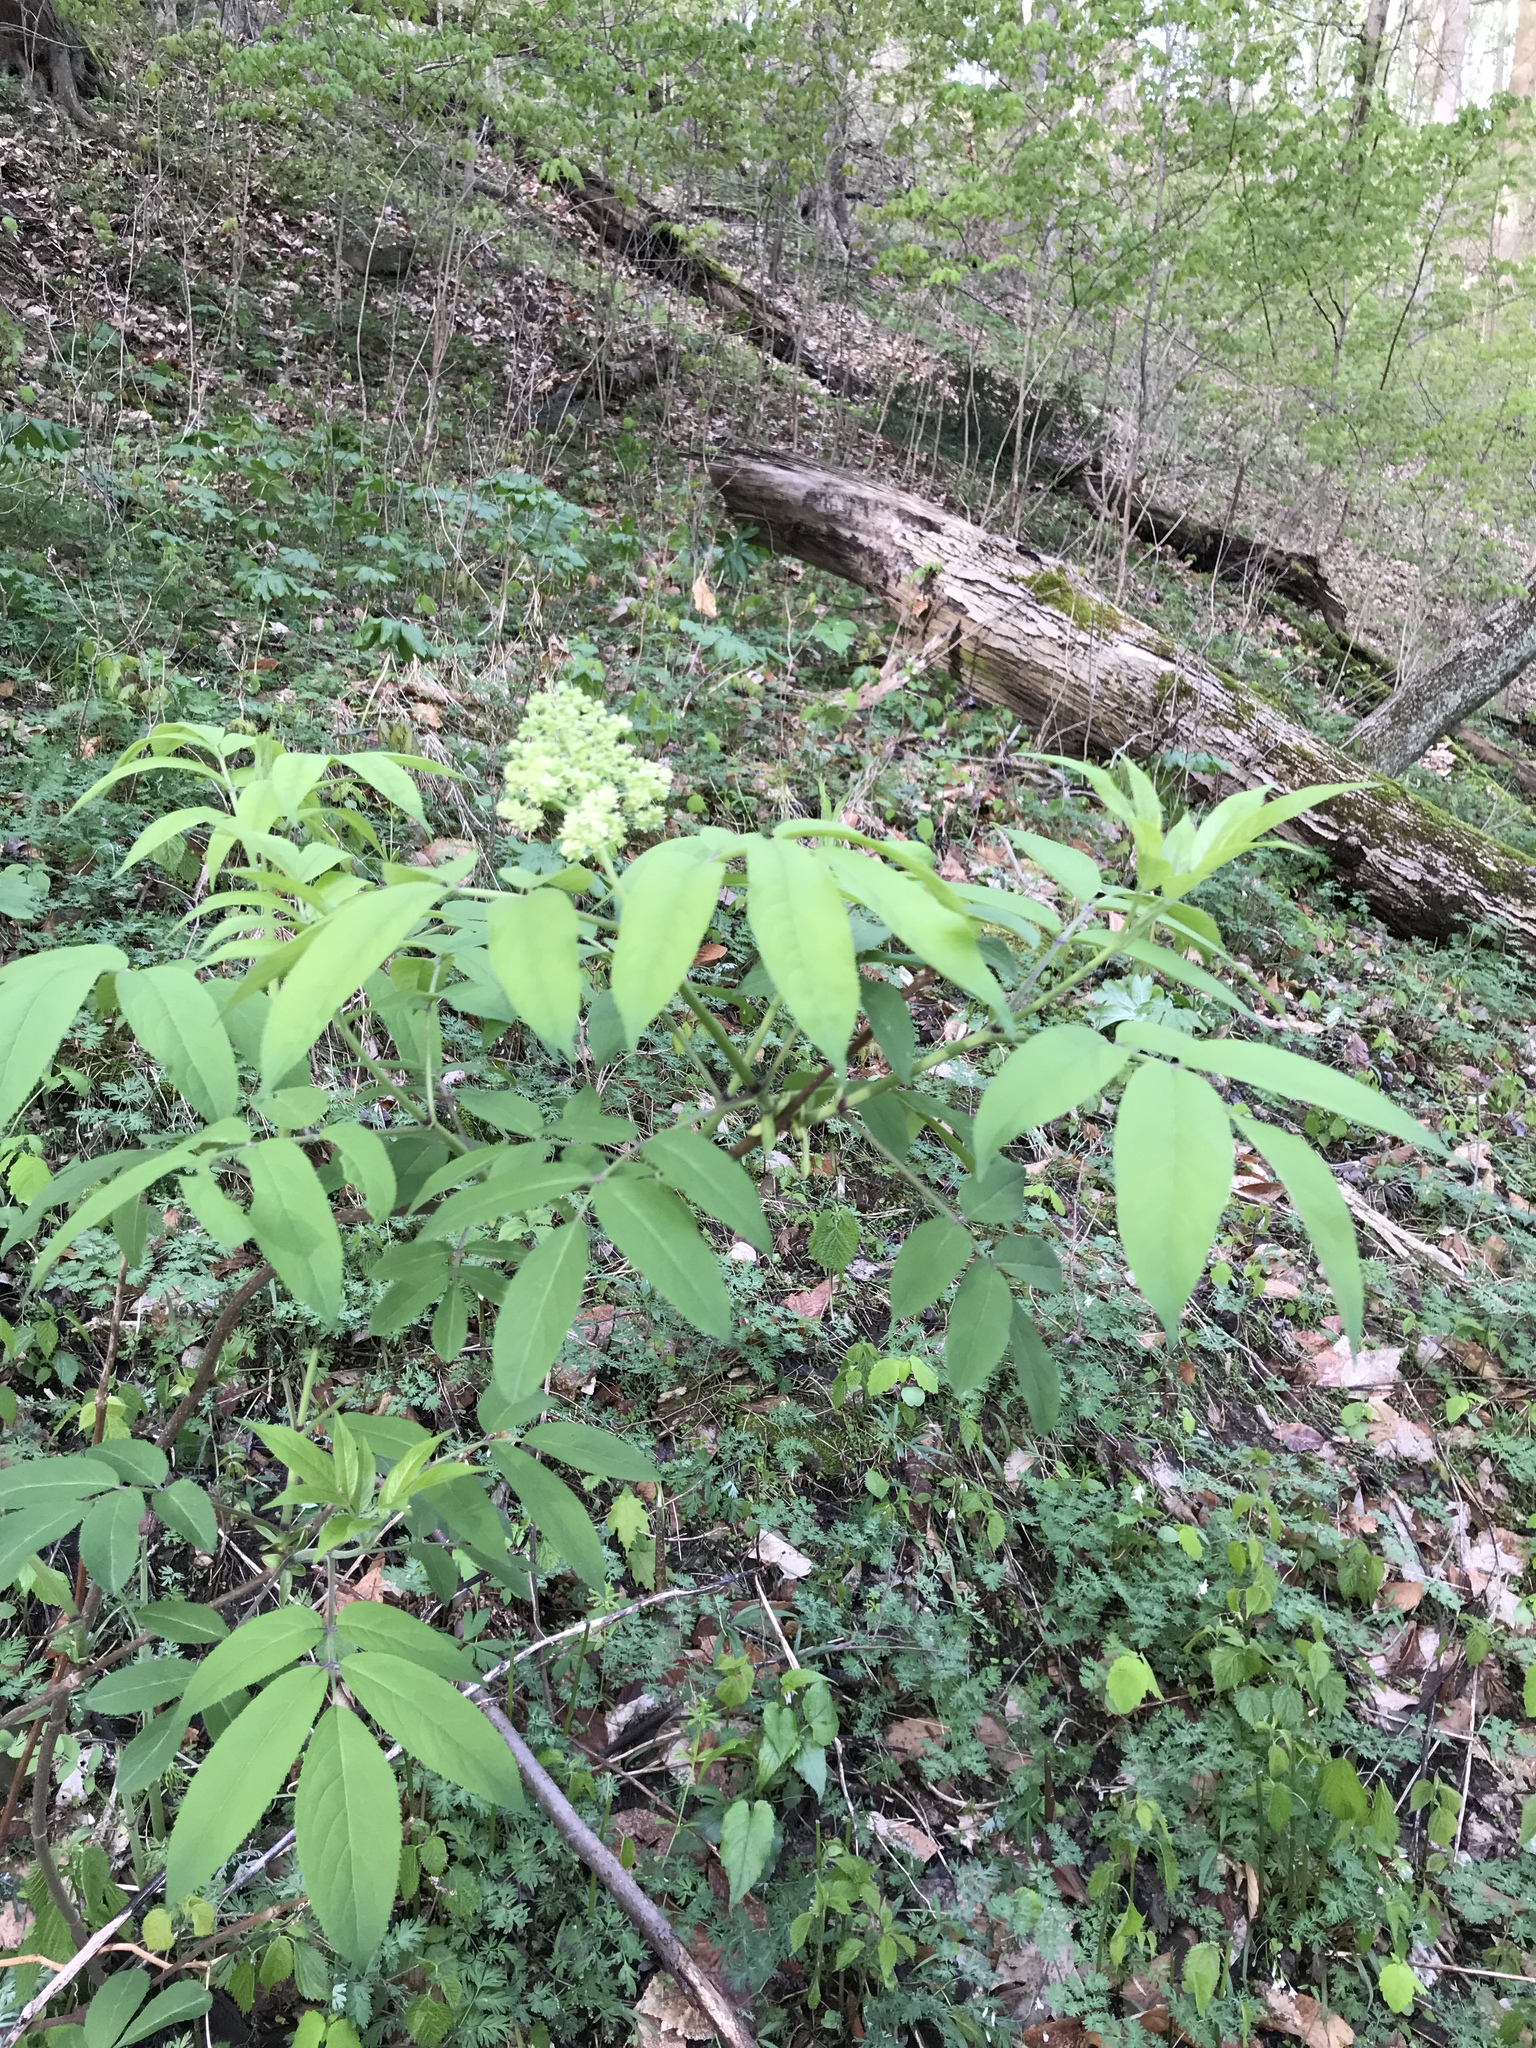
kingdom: Plantae
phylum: Tracheophyta
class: Magnoliopsida
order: Dipsacales
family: Viburnaceae
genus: Sambucus
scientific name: Sambucus racemosa
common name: Red-berried elder
